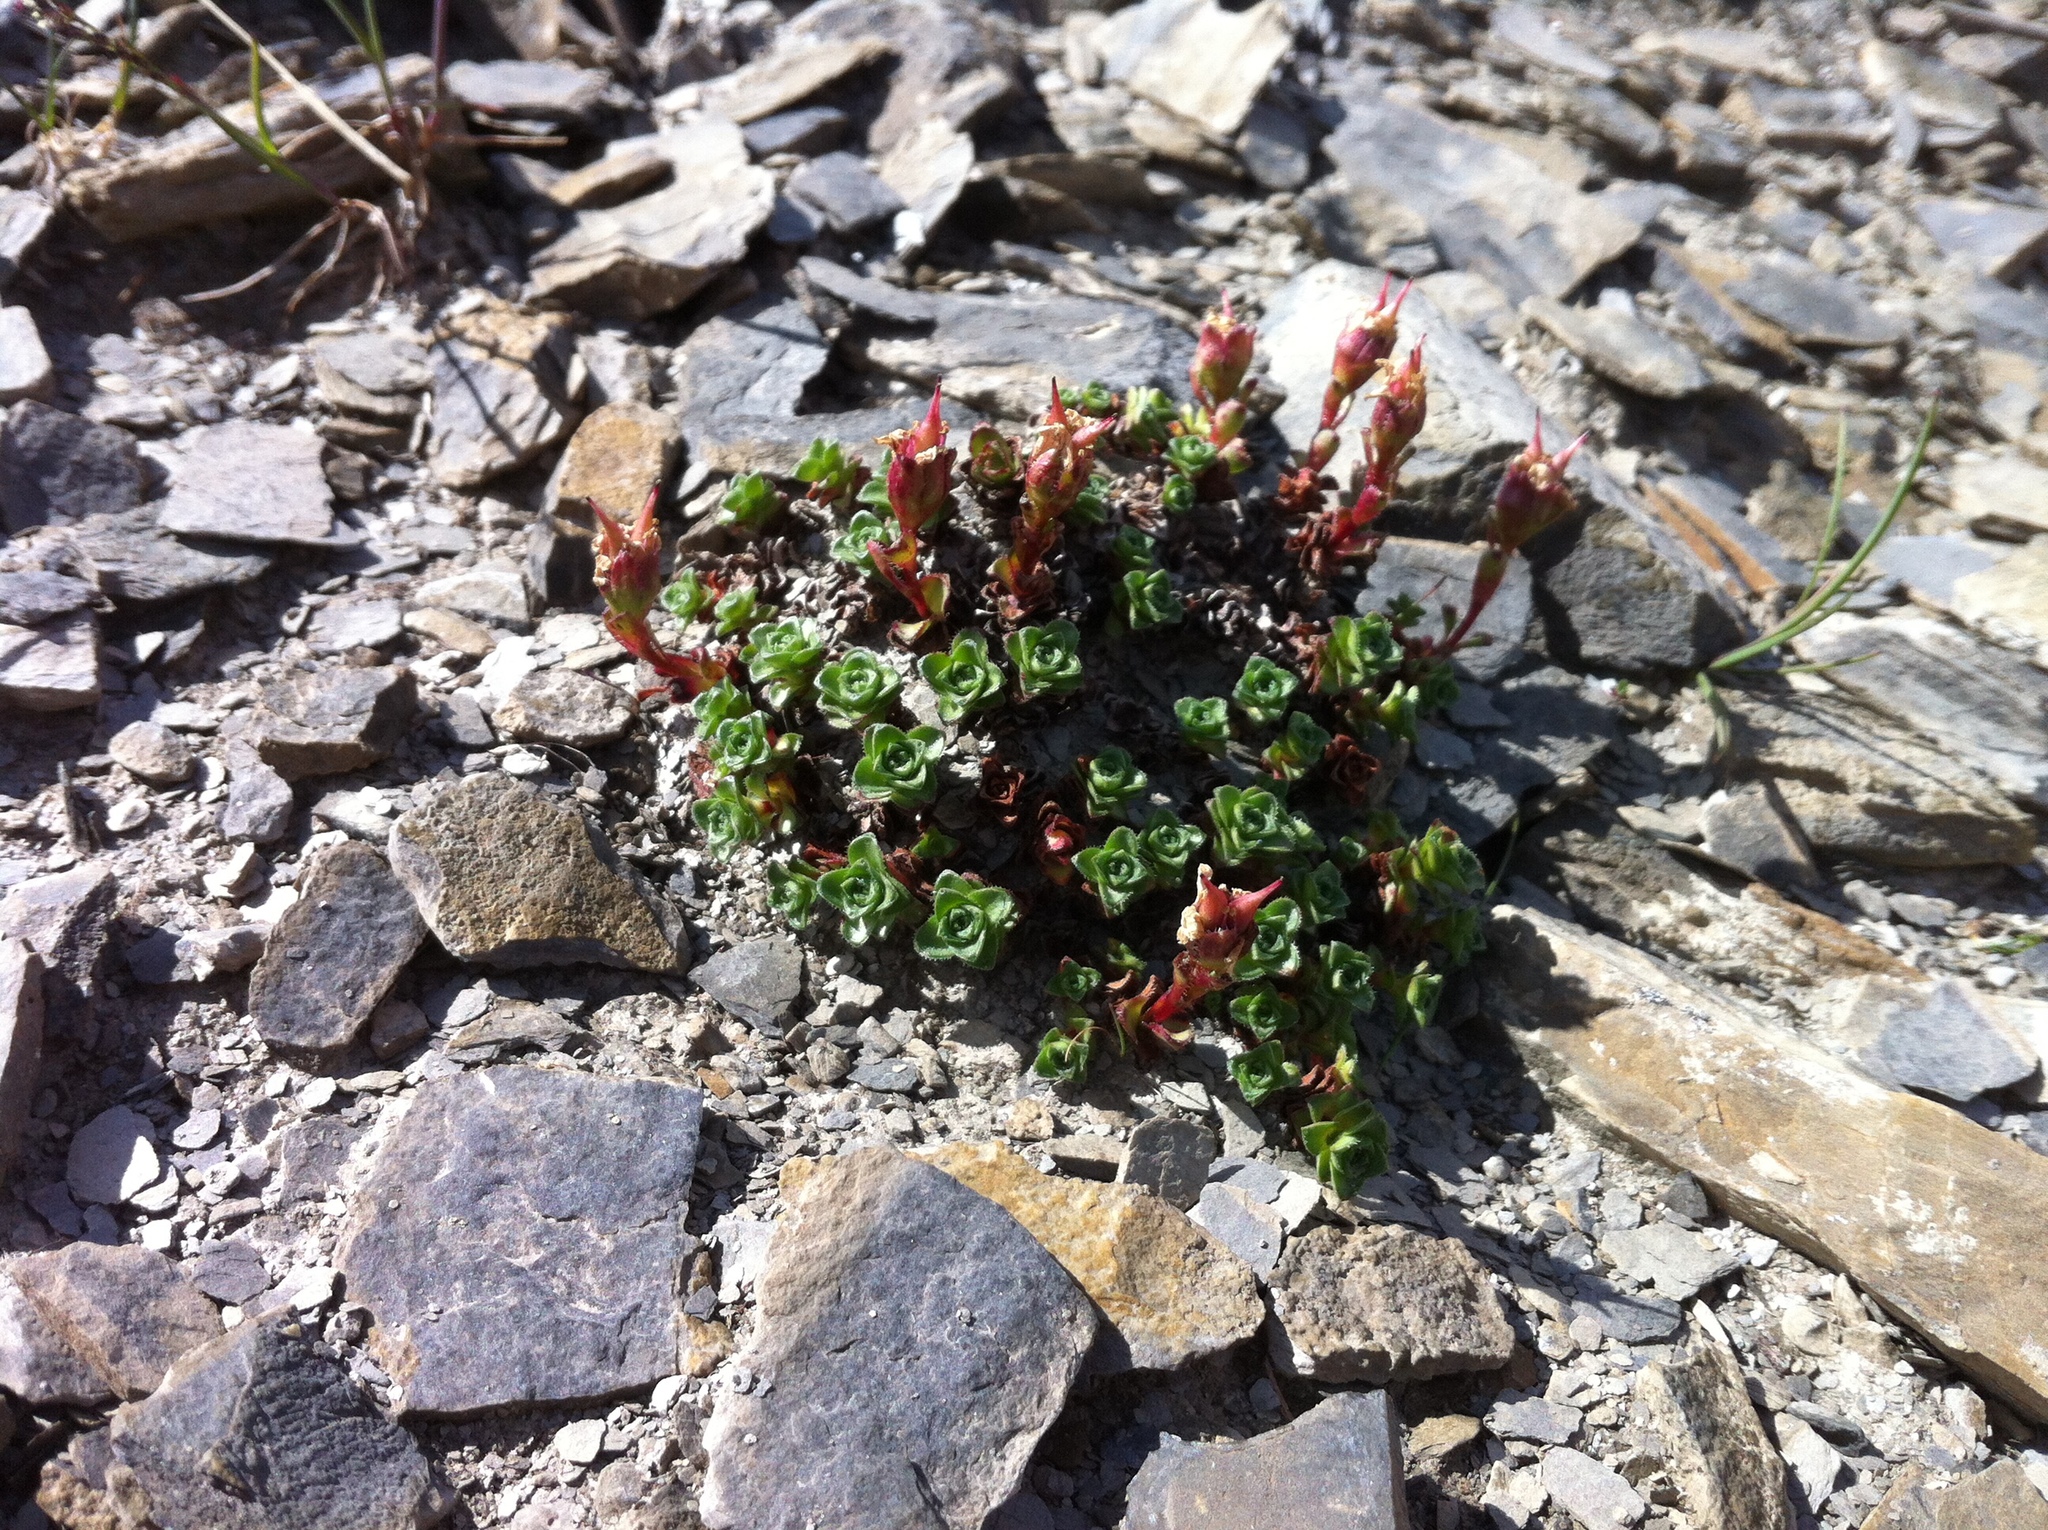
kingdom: Plantae
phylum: Tracheophyta
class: Magnoliopsida
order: Saxifragales
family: Saxifragaceae
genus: Saxifraga
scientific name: Saxifraga oppositifolia
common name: Purple saxifrage
